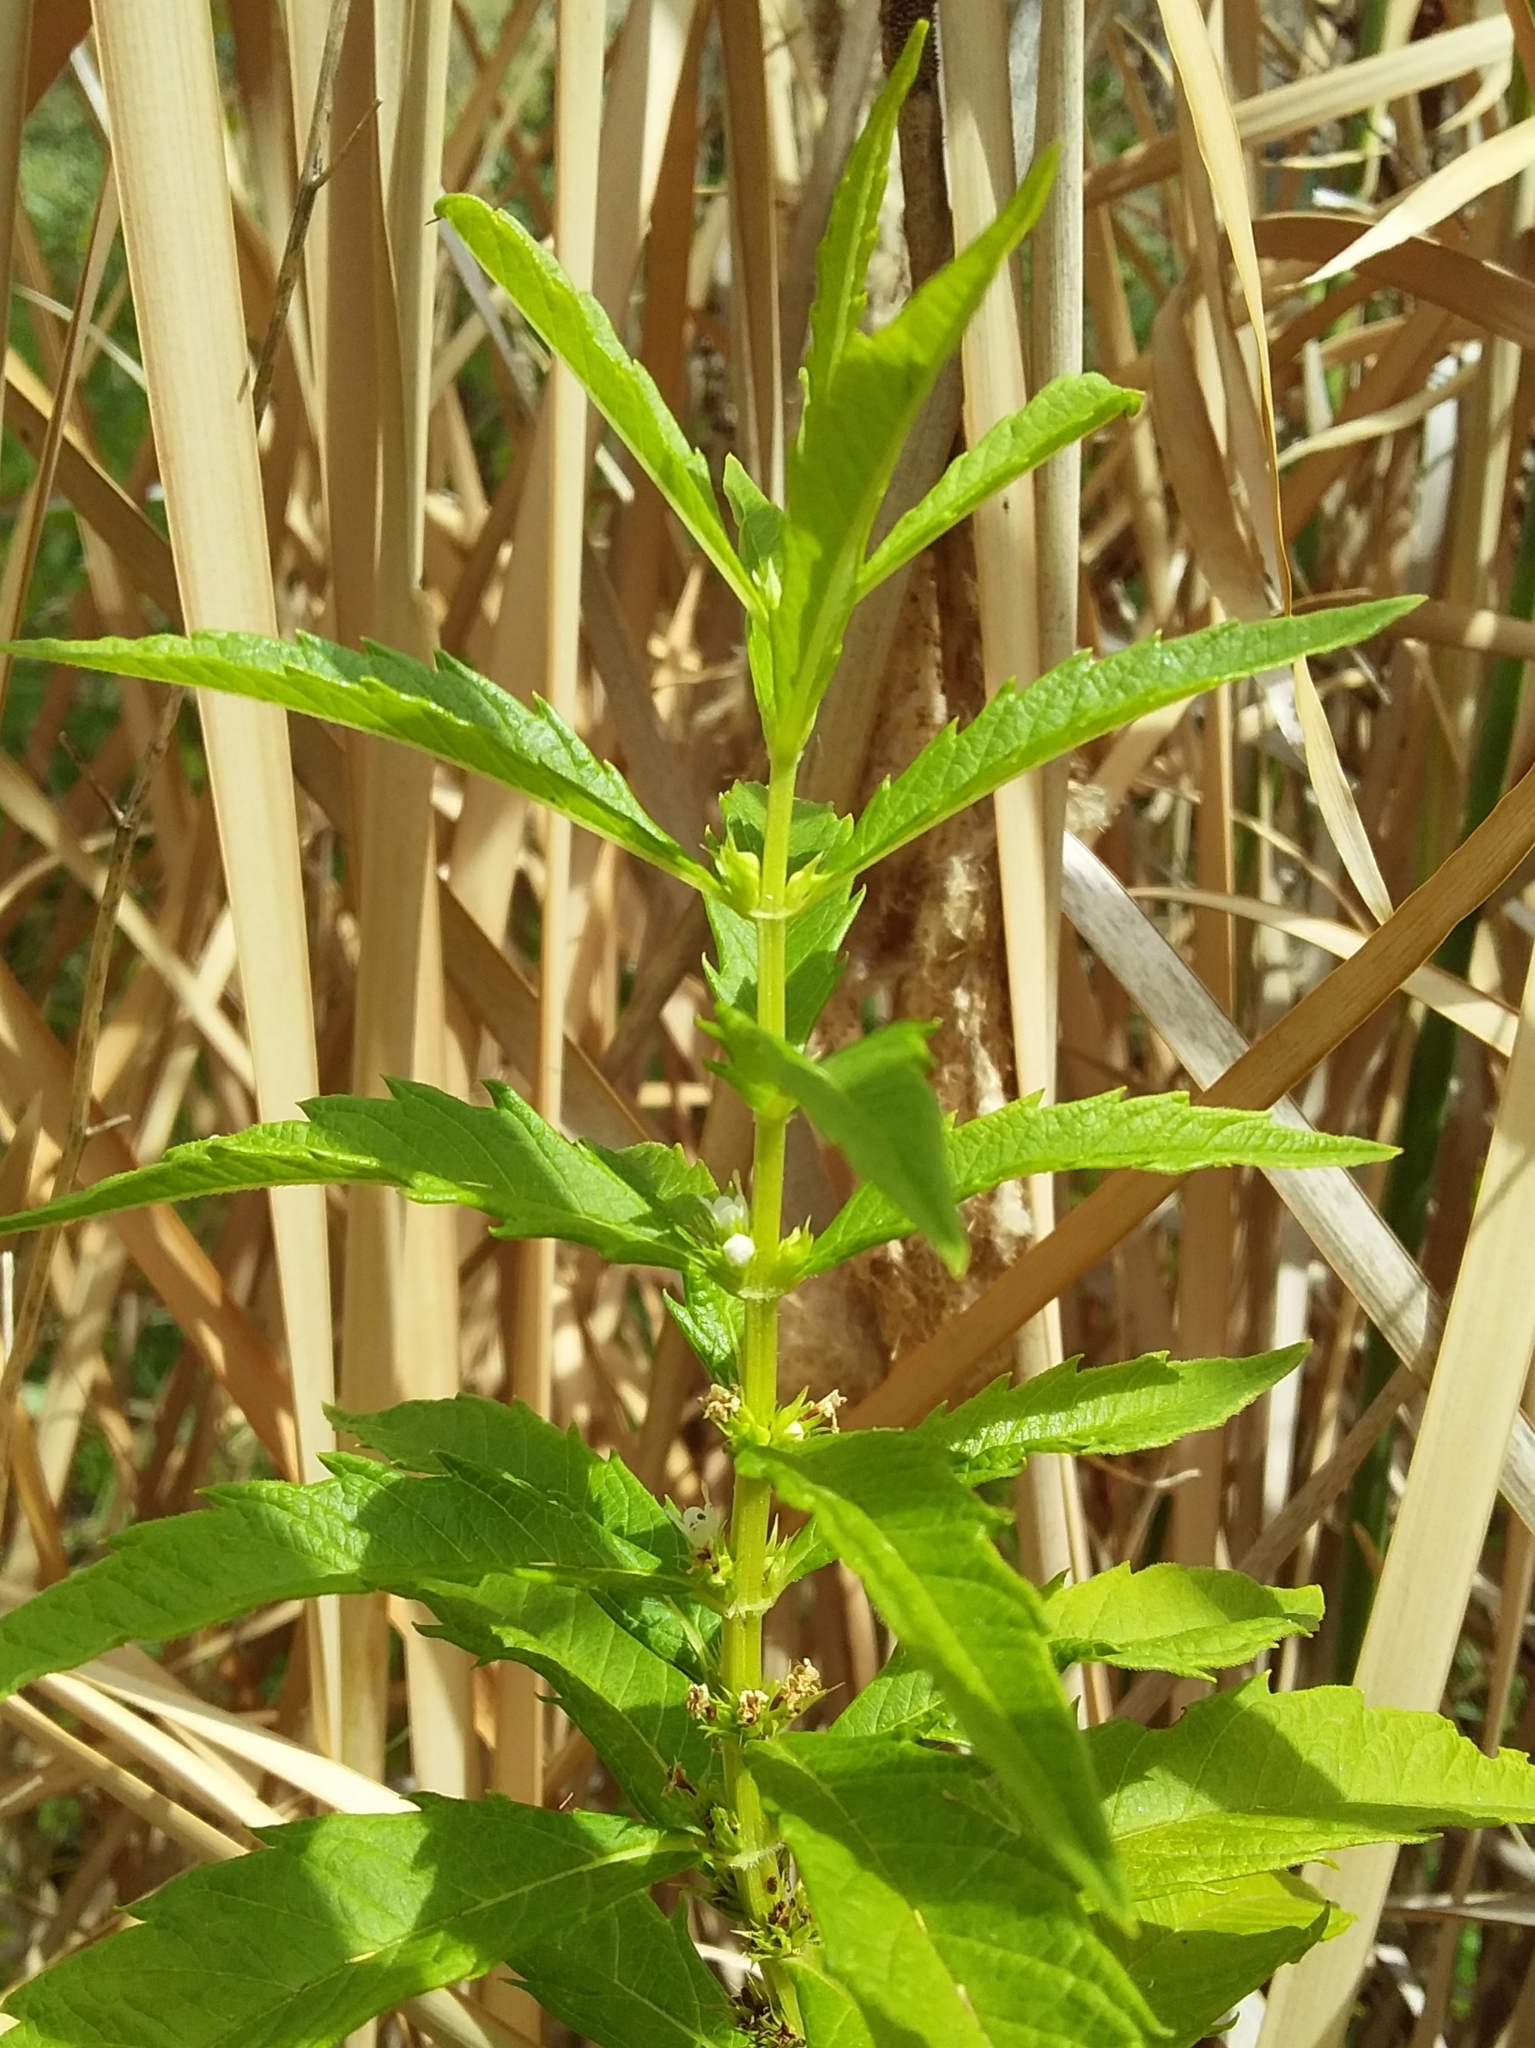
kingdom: Plantae
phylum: Tracheophyta
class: Magnoliopsida
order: Lamiales
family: Lamiaceae
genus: Lycopus
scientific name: Lycopus australis
